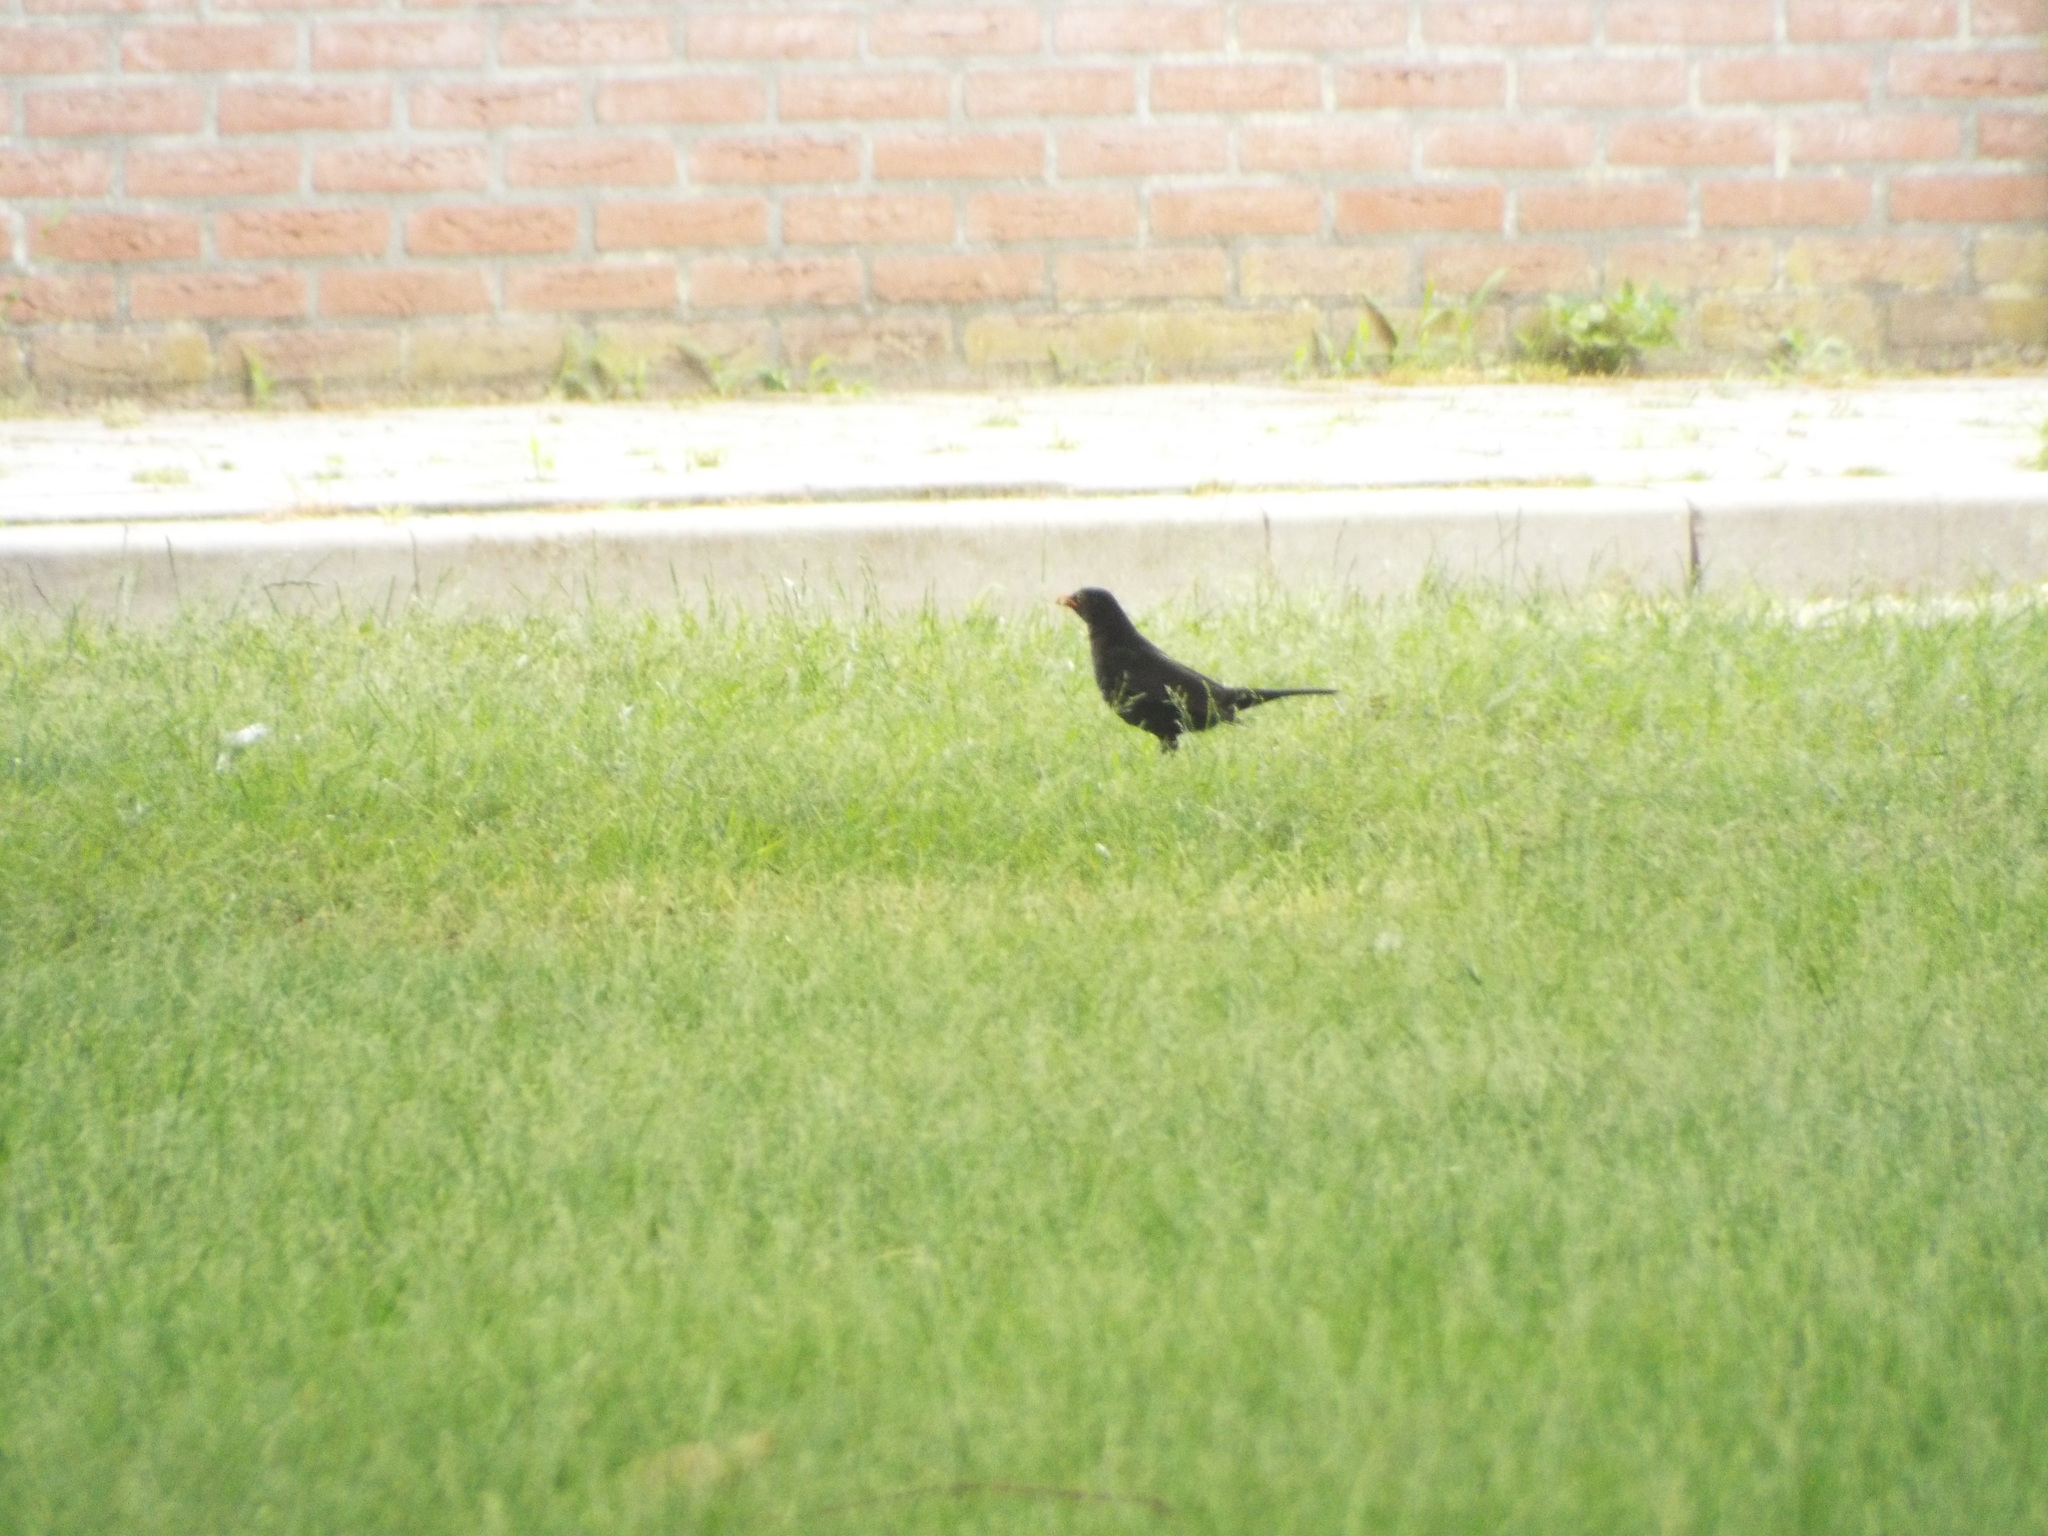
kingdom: Animalia
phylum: Chordata
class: Aves
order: Passeriformes
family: Turdidae
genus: Turdus
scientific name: Turdus merula
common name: Common blackbird
